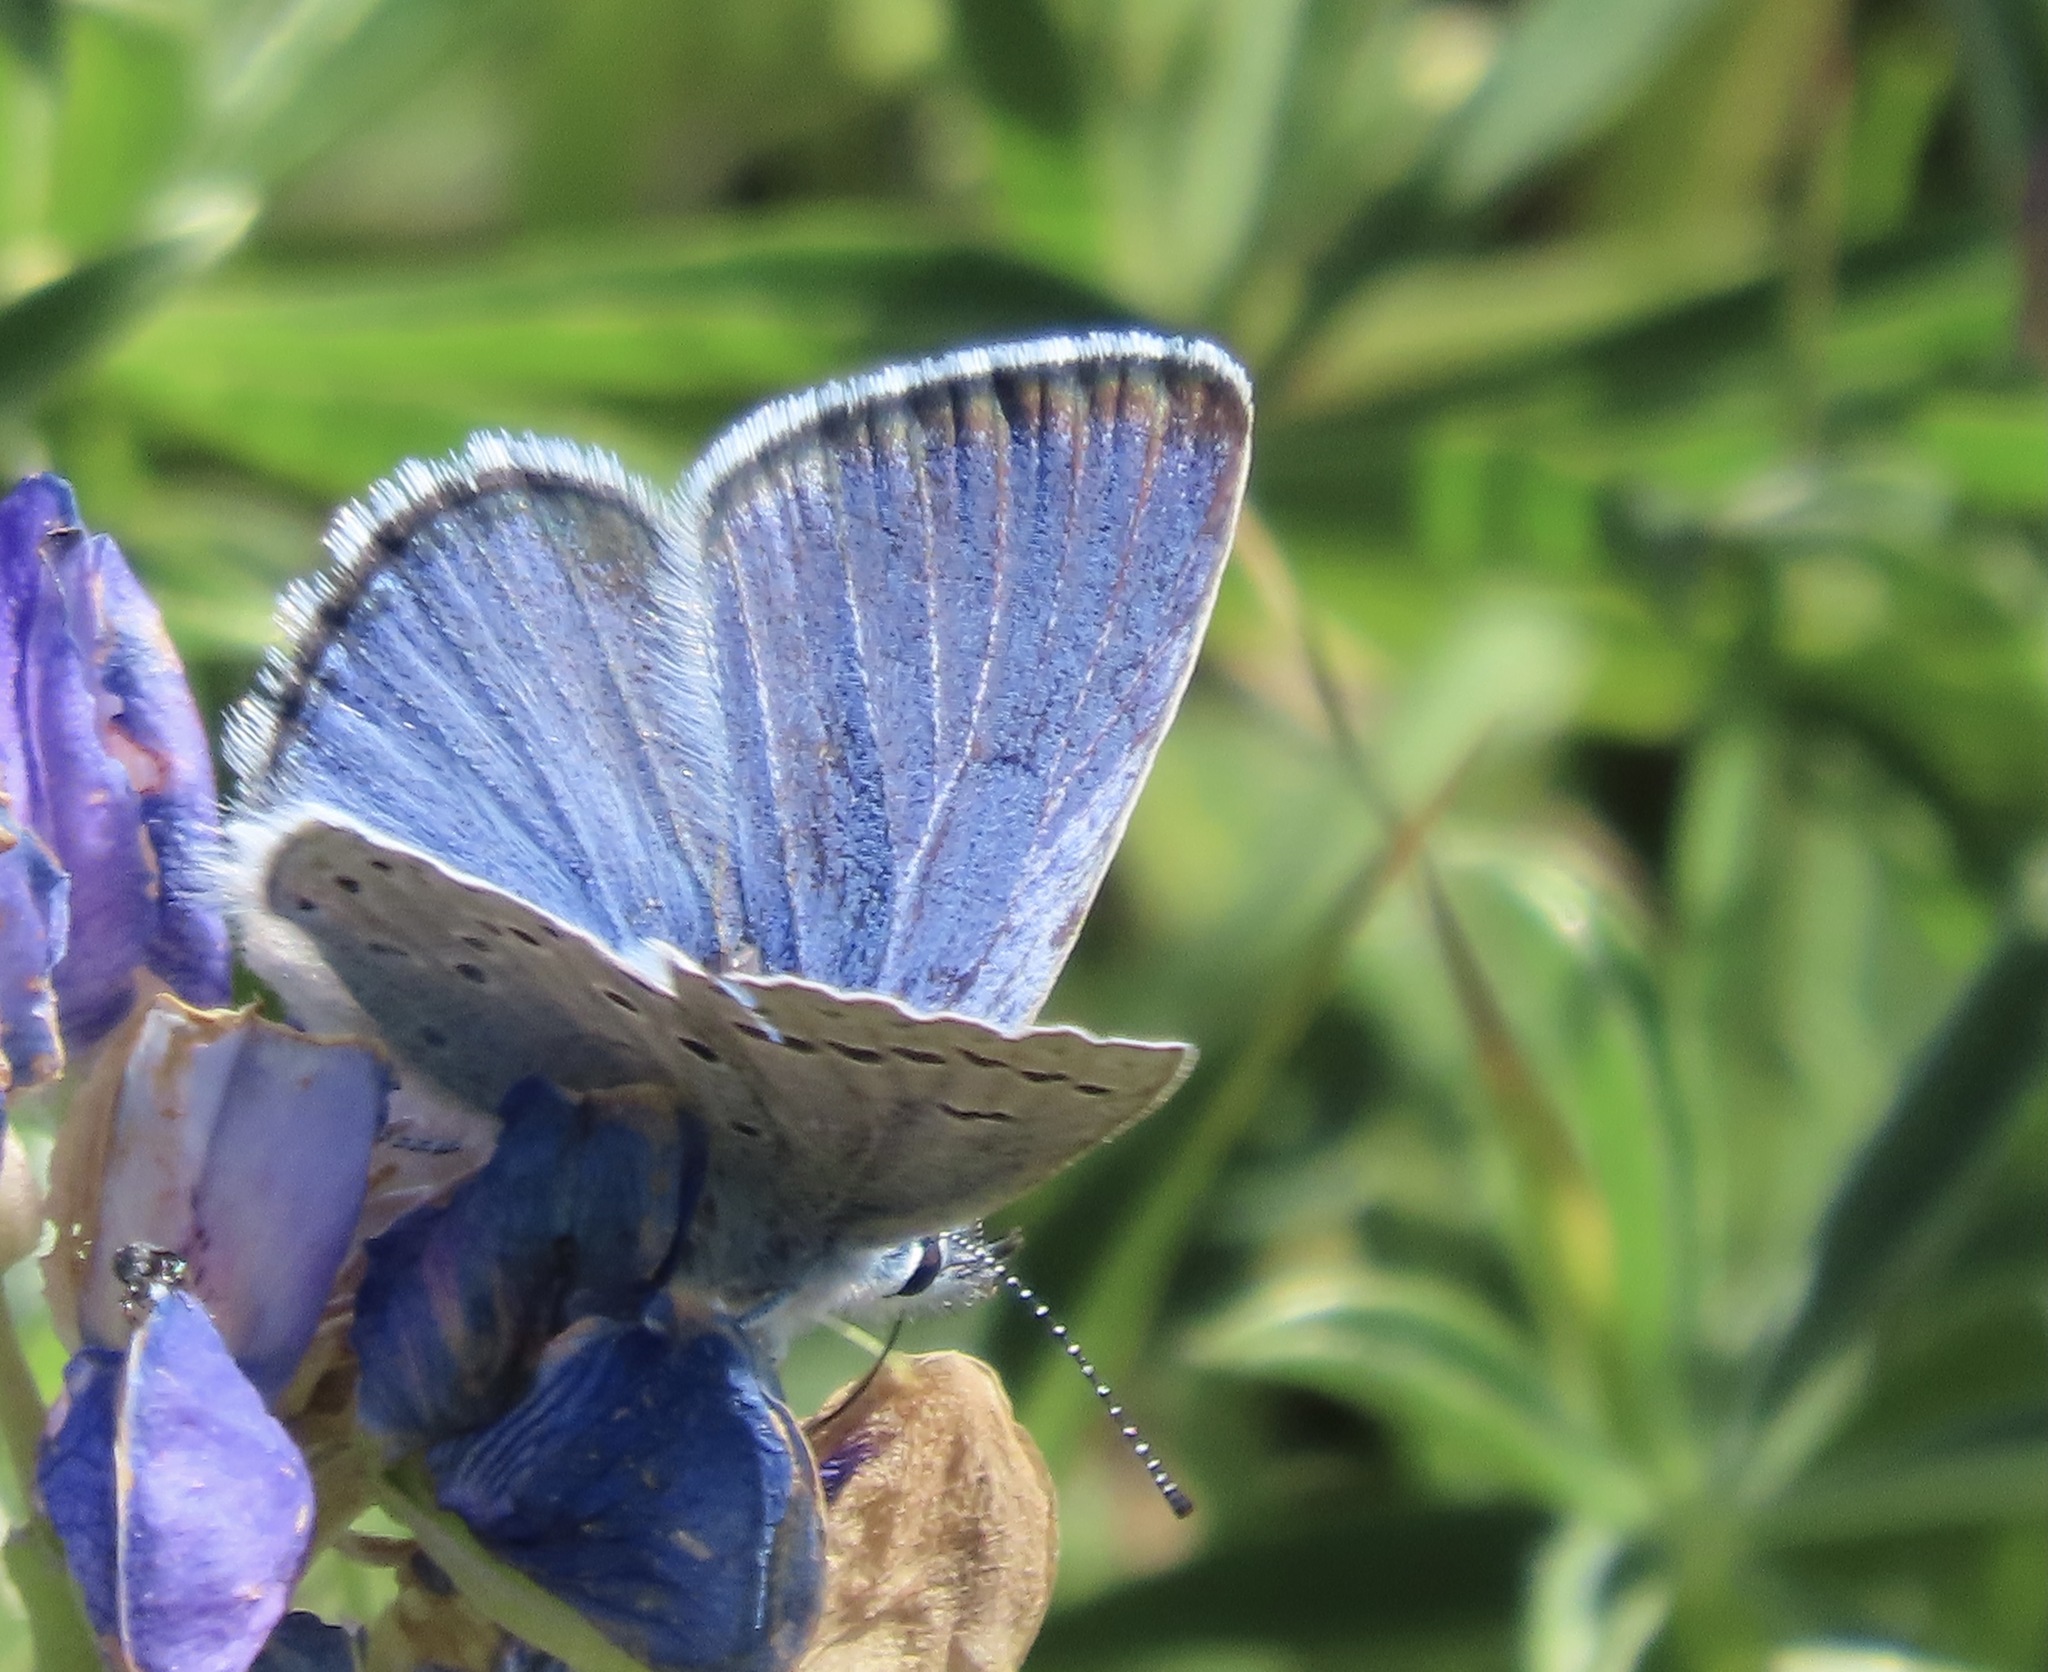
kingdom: Animalia
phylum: Arthropoda
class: Insecta
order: Lepidoptera
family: Lycaenidae
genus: Icaricia
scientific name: Icaricia icarioides
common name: Boisduval's blue
